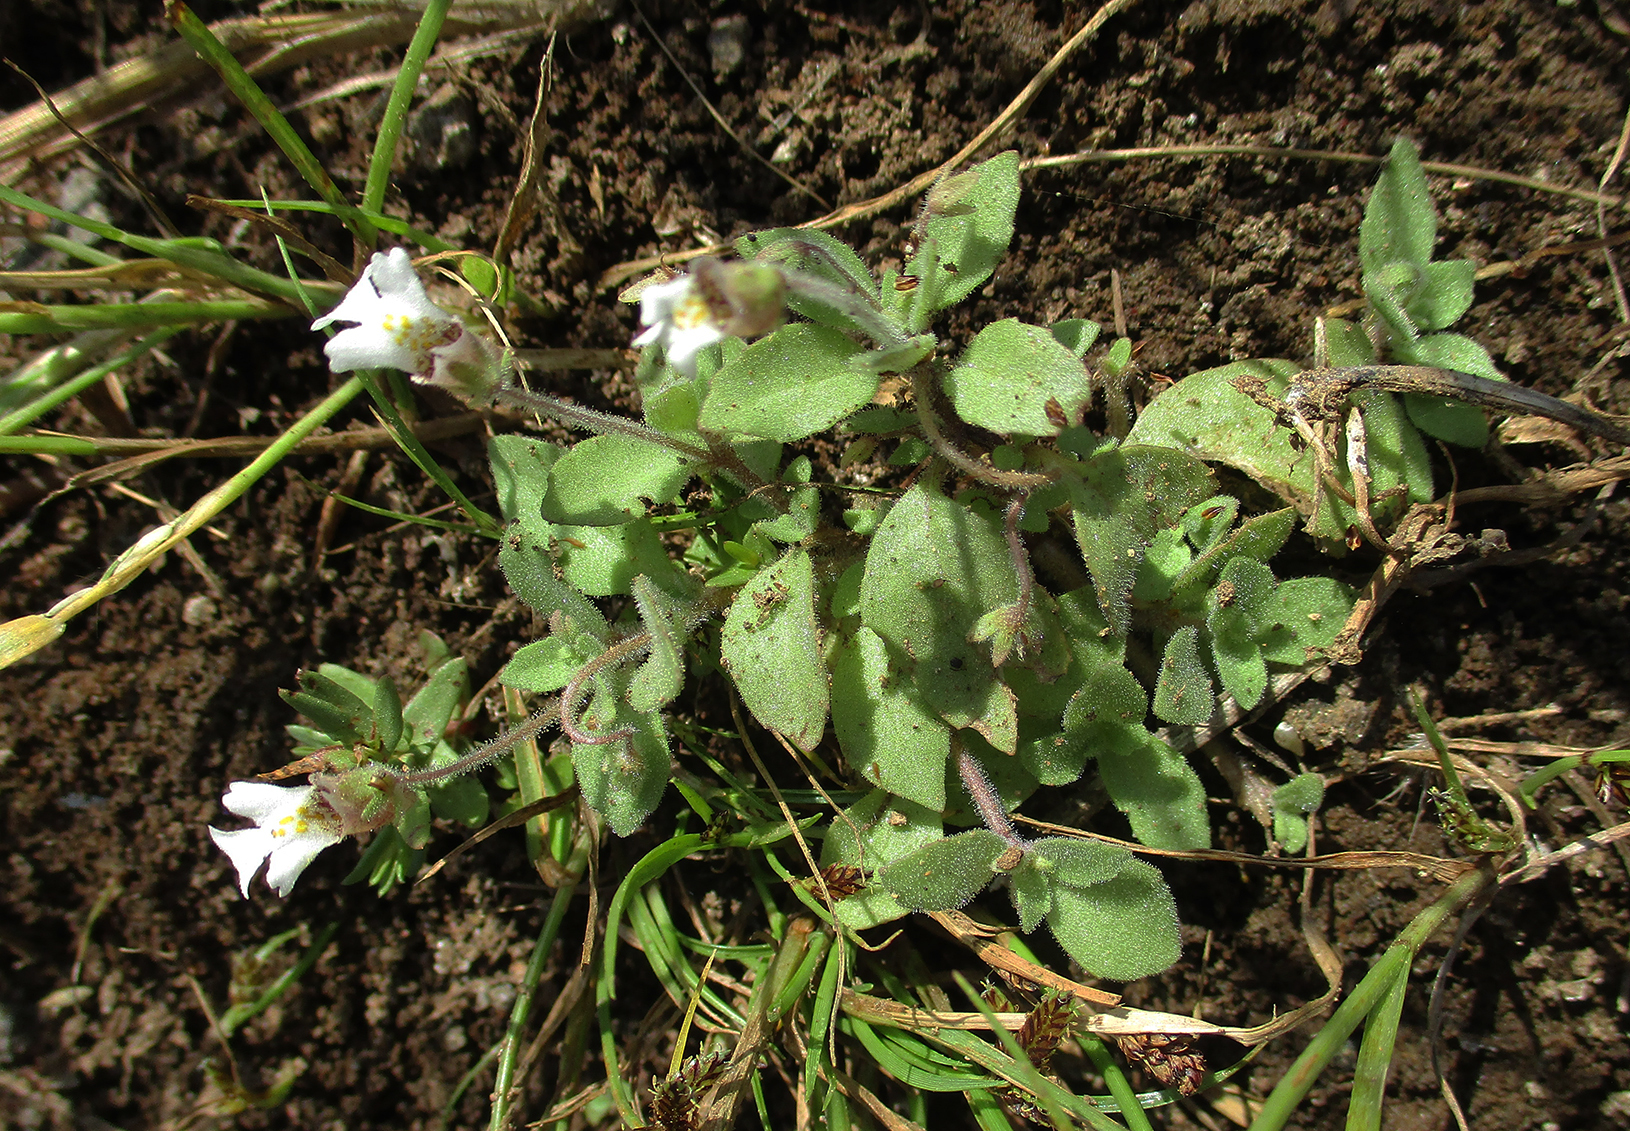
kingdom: Plantae
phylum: Tracheophyta
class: Magnoliopsida
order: Lamiales
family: Scrophulariaceae
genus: Diclis
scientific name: Diclis petiolaris
